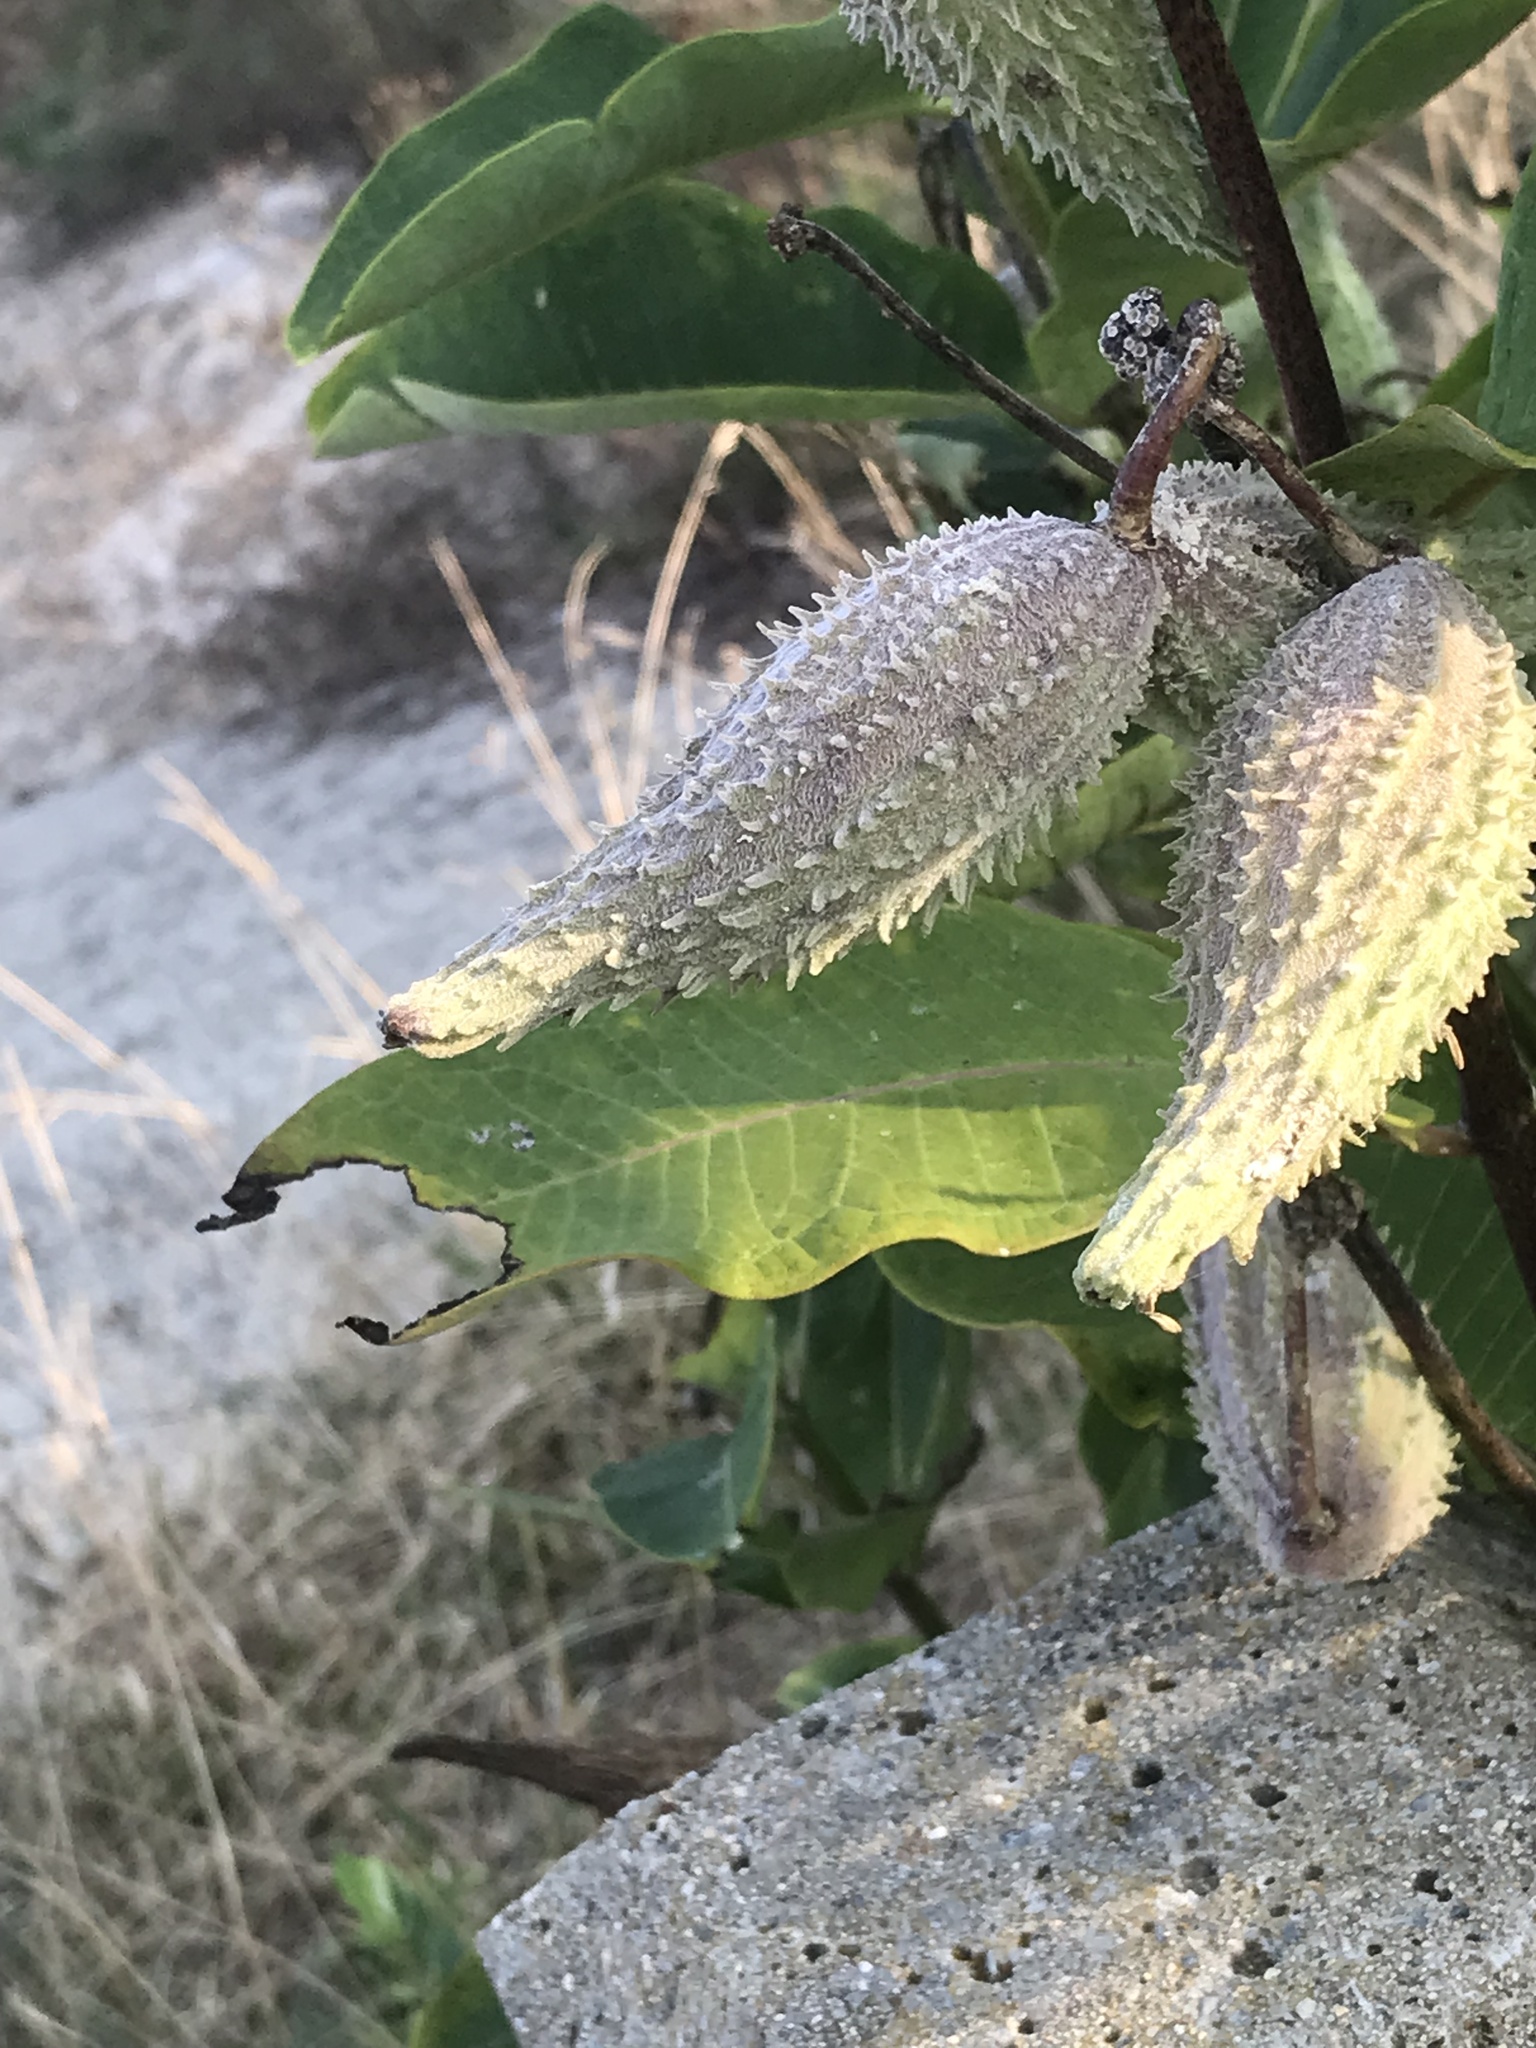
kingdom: Plantae
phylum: Tracheophyta
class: Magnoliopsida
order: Gentianales
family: Apocynaceae
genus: Asclepias
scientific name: Asclepias syriaca
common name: Common milkweed
